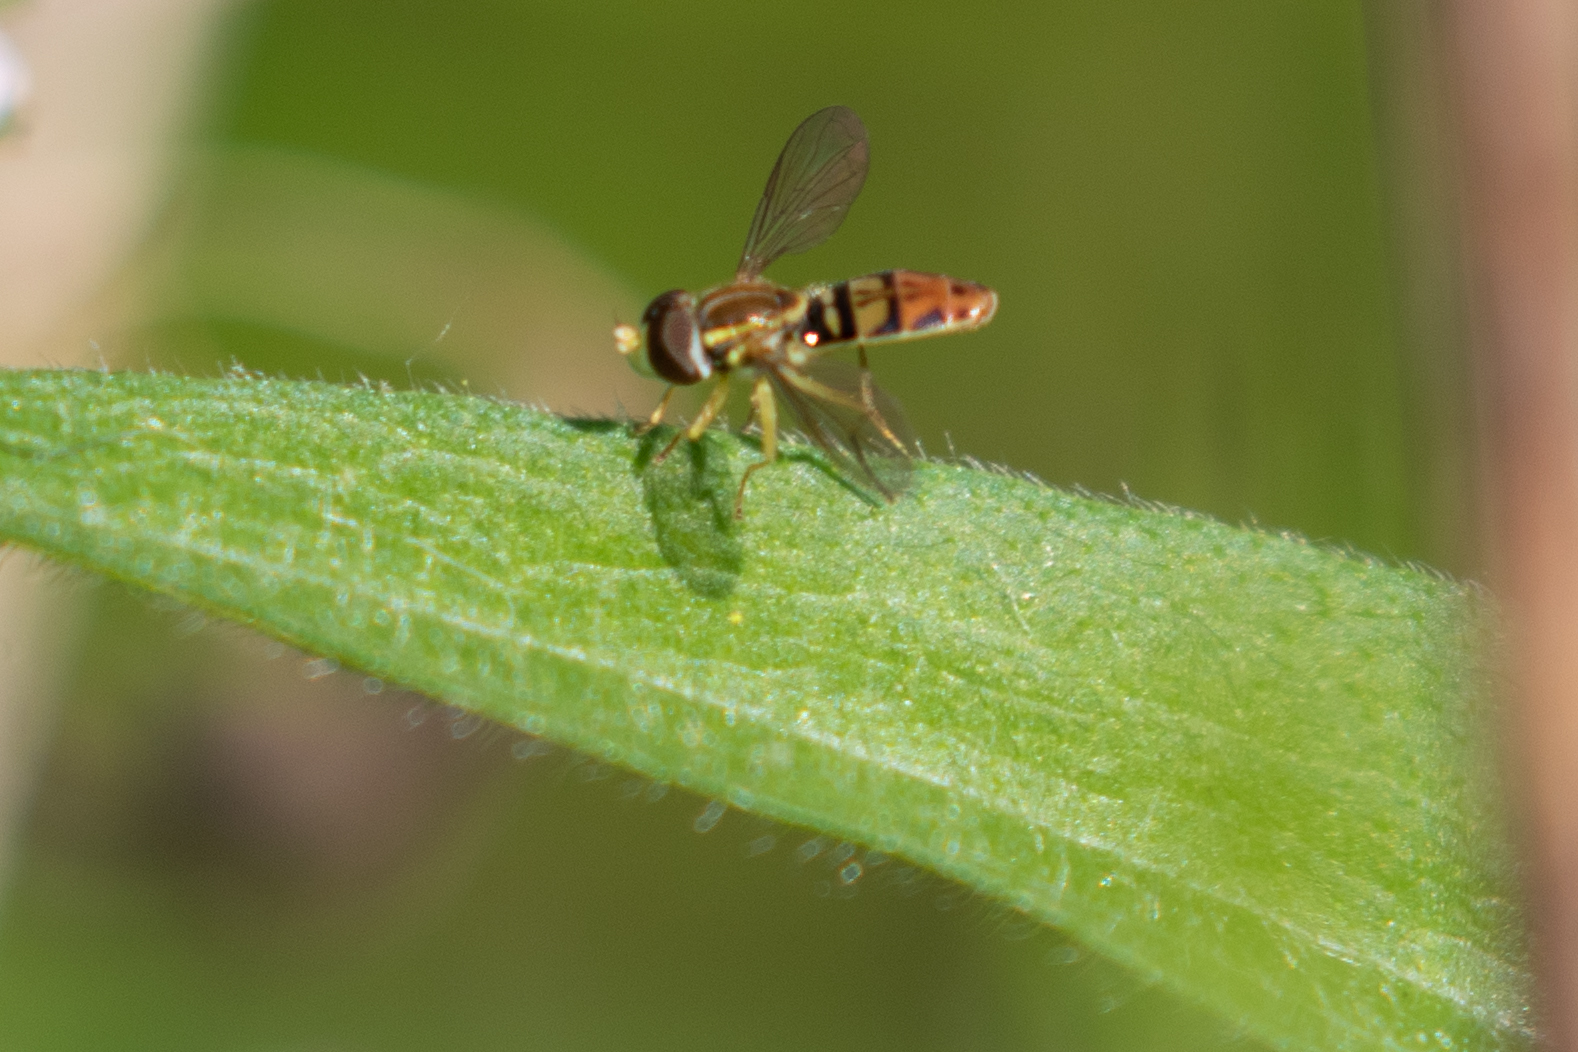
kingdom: Animalia
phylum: Arthropoda
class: Insecta
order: Diptera
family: Syrphidae
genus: Toxomerus
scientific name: Toxomerus marginatus
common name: Syrphid fly
